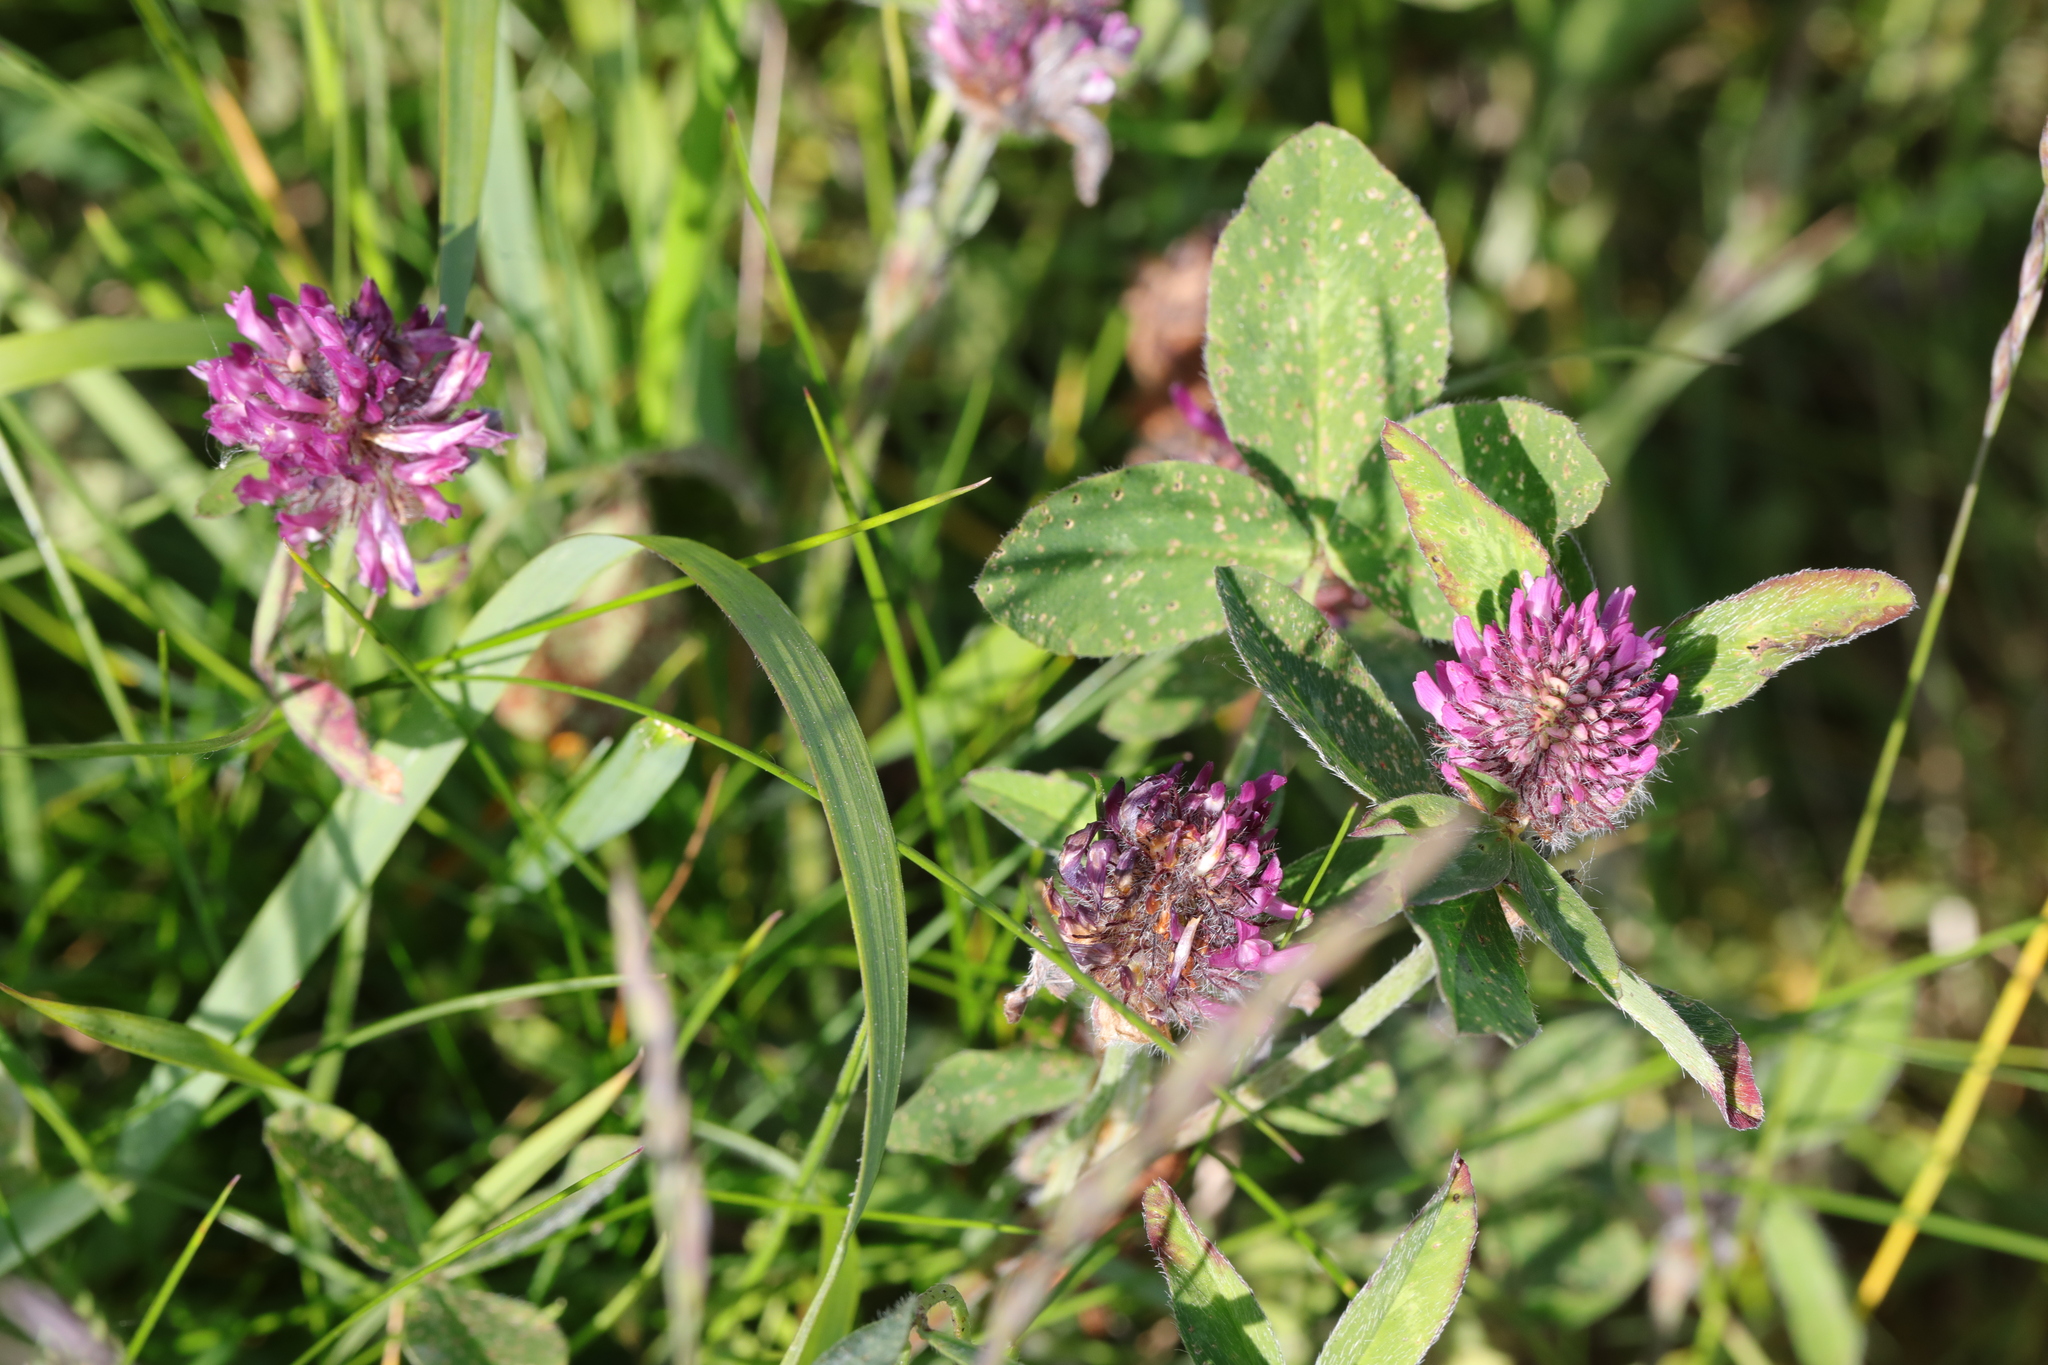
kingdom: Plantae
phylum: Tracheophyta
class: Magnoliopsida
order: Fabales
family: Fabaceae
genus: Trifolium
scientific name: Trifolium pratense
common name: Red clover
